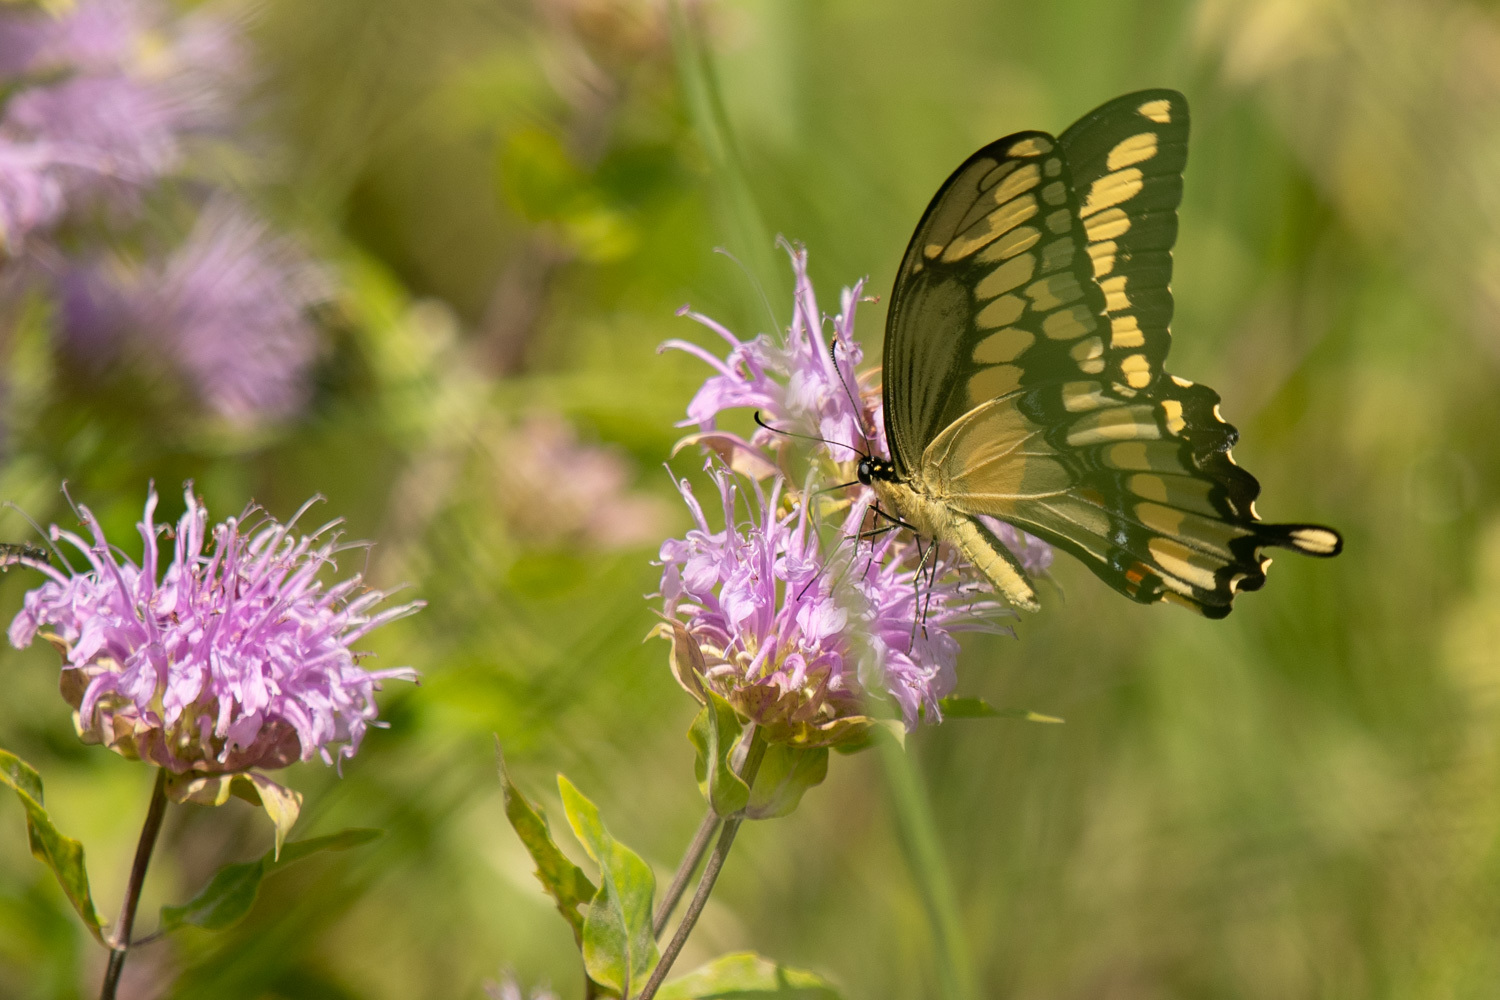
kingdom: Animalia
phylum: Arthropoda
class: Insecta
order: Lepidoptera
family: Papilionidae
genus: Papilio
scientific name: Papilio cresphontes
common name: Giant swallowtail
